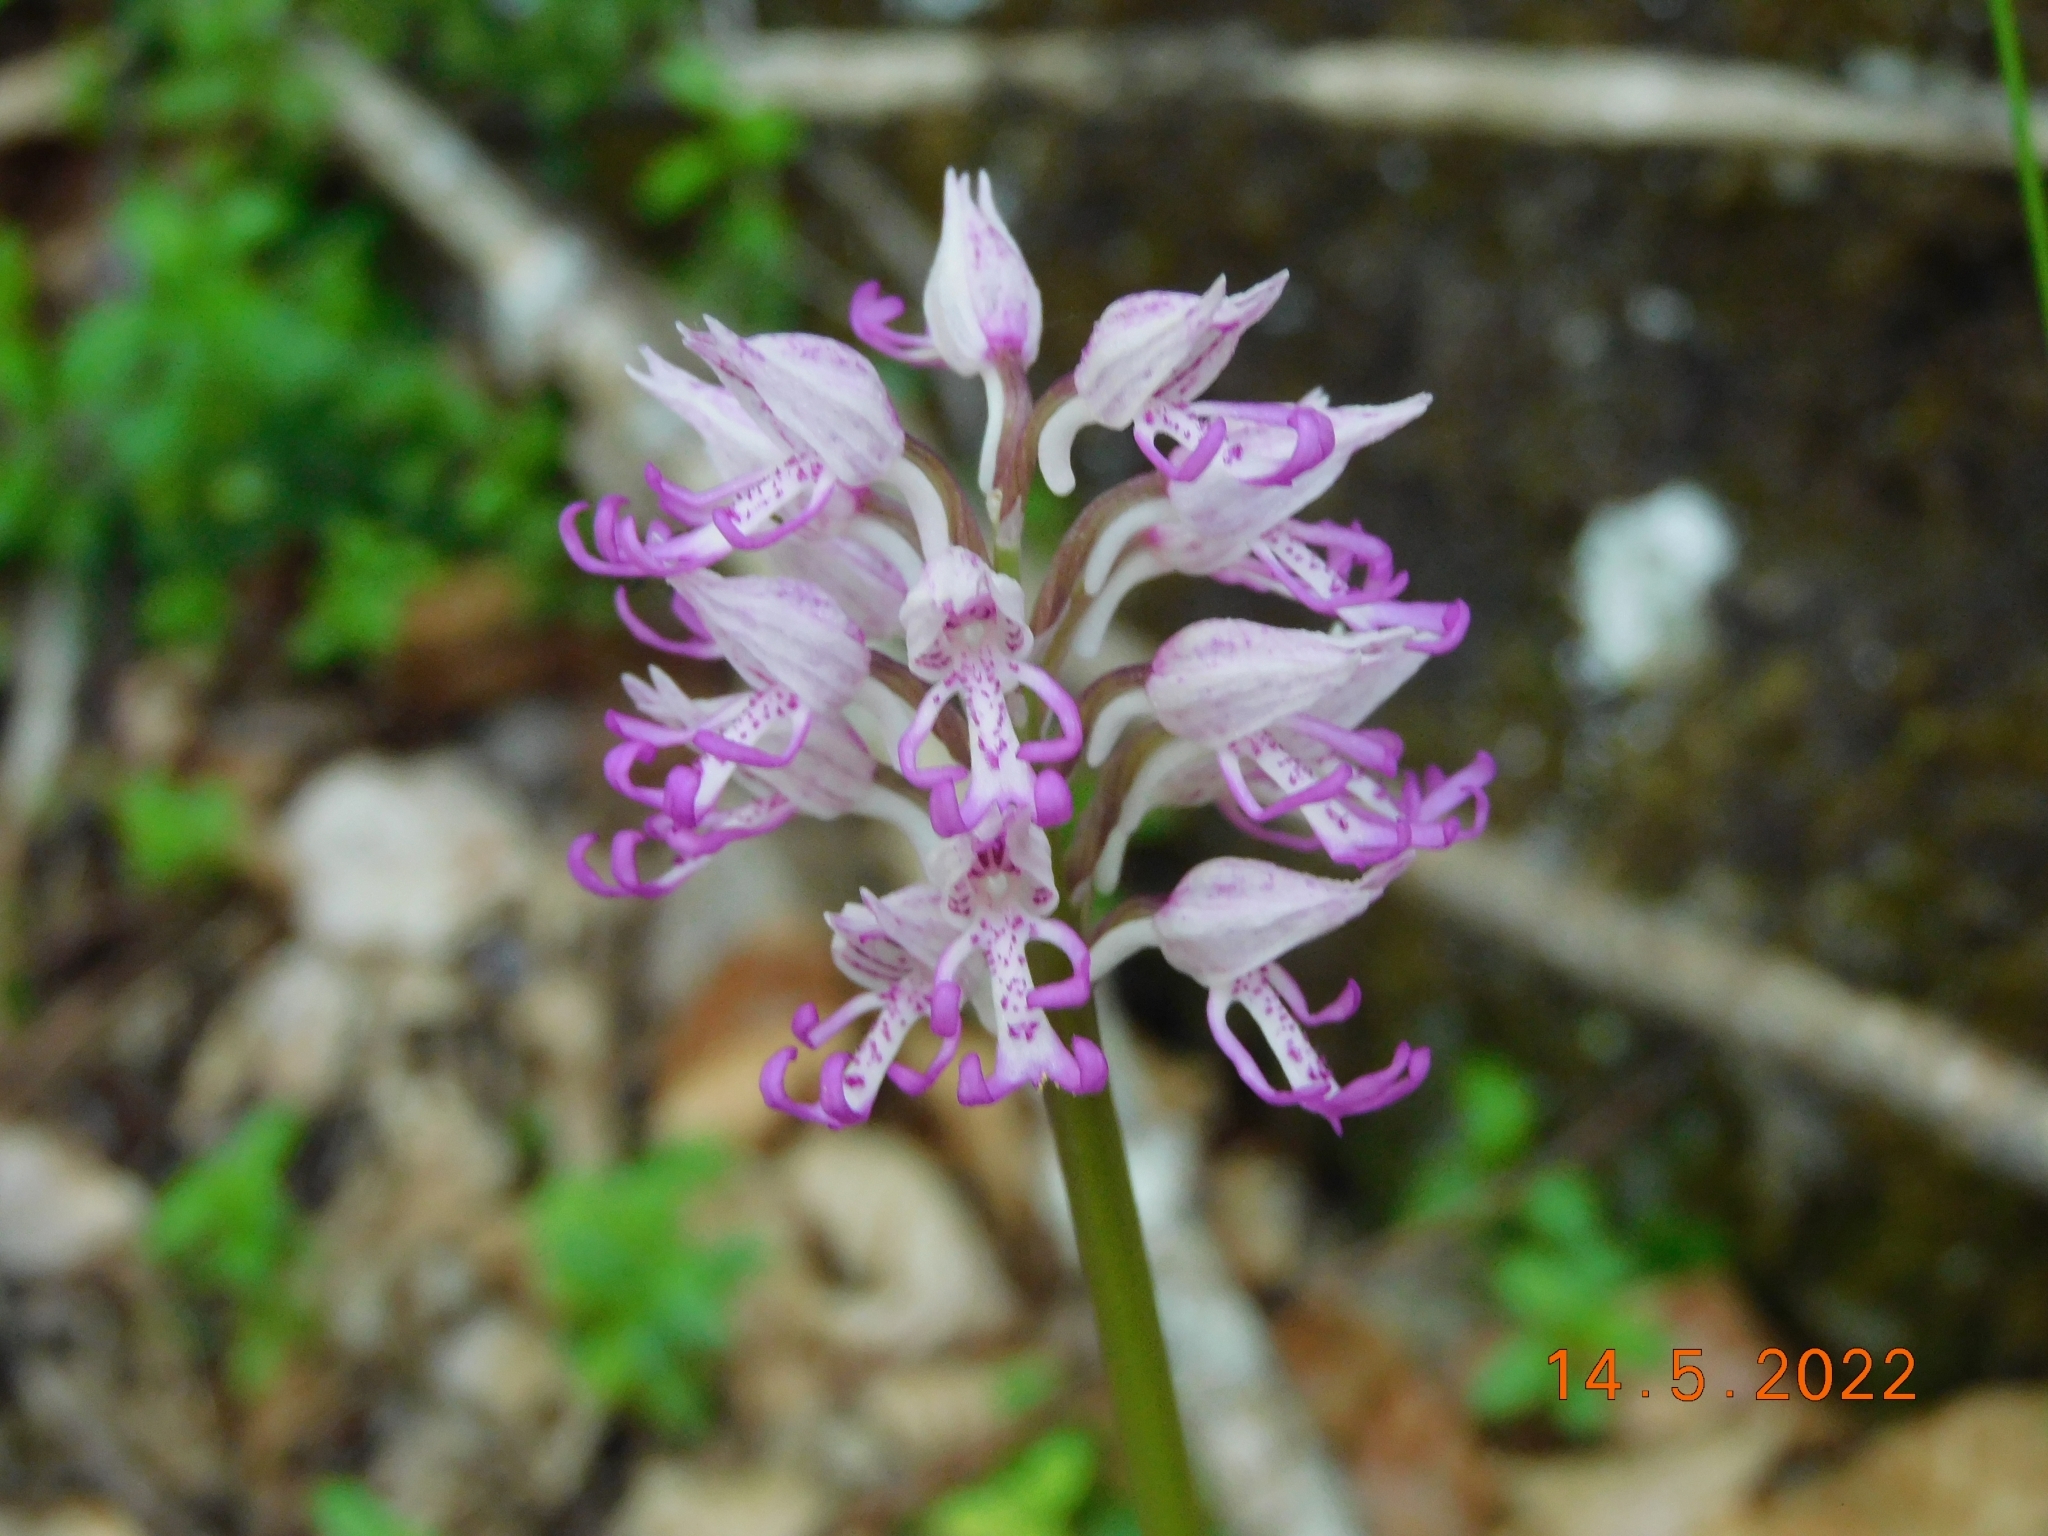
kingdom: Plantae
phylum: Tracheophyta
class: Liliopsida
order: Asparagales
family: Orchidaceae
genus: Orchis
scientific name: Orchis simia
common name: Monkey orchid
